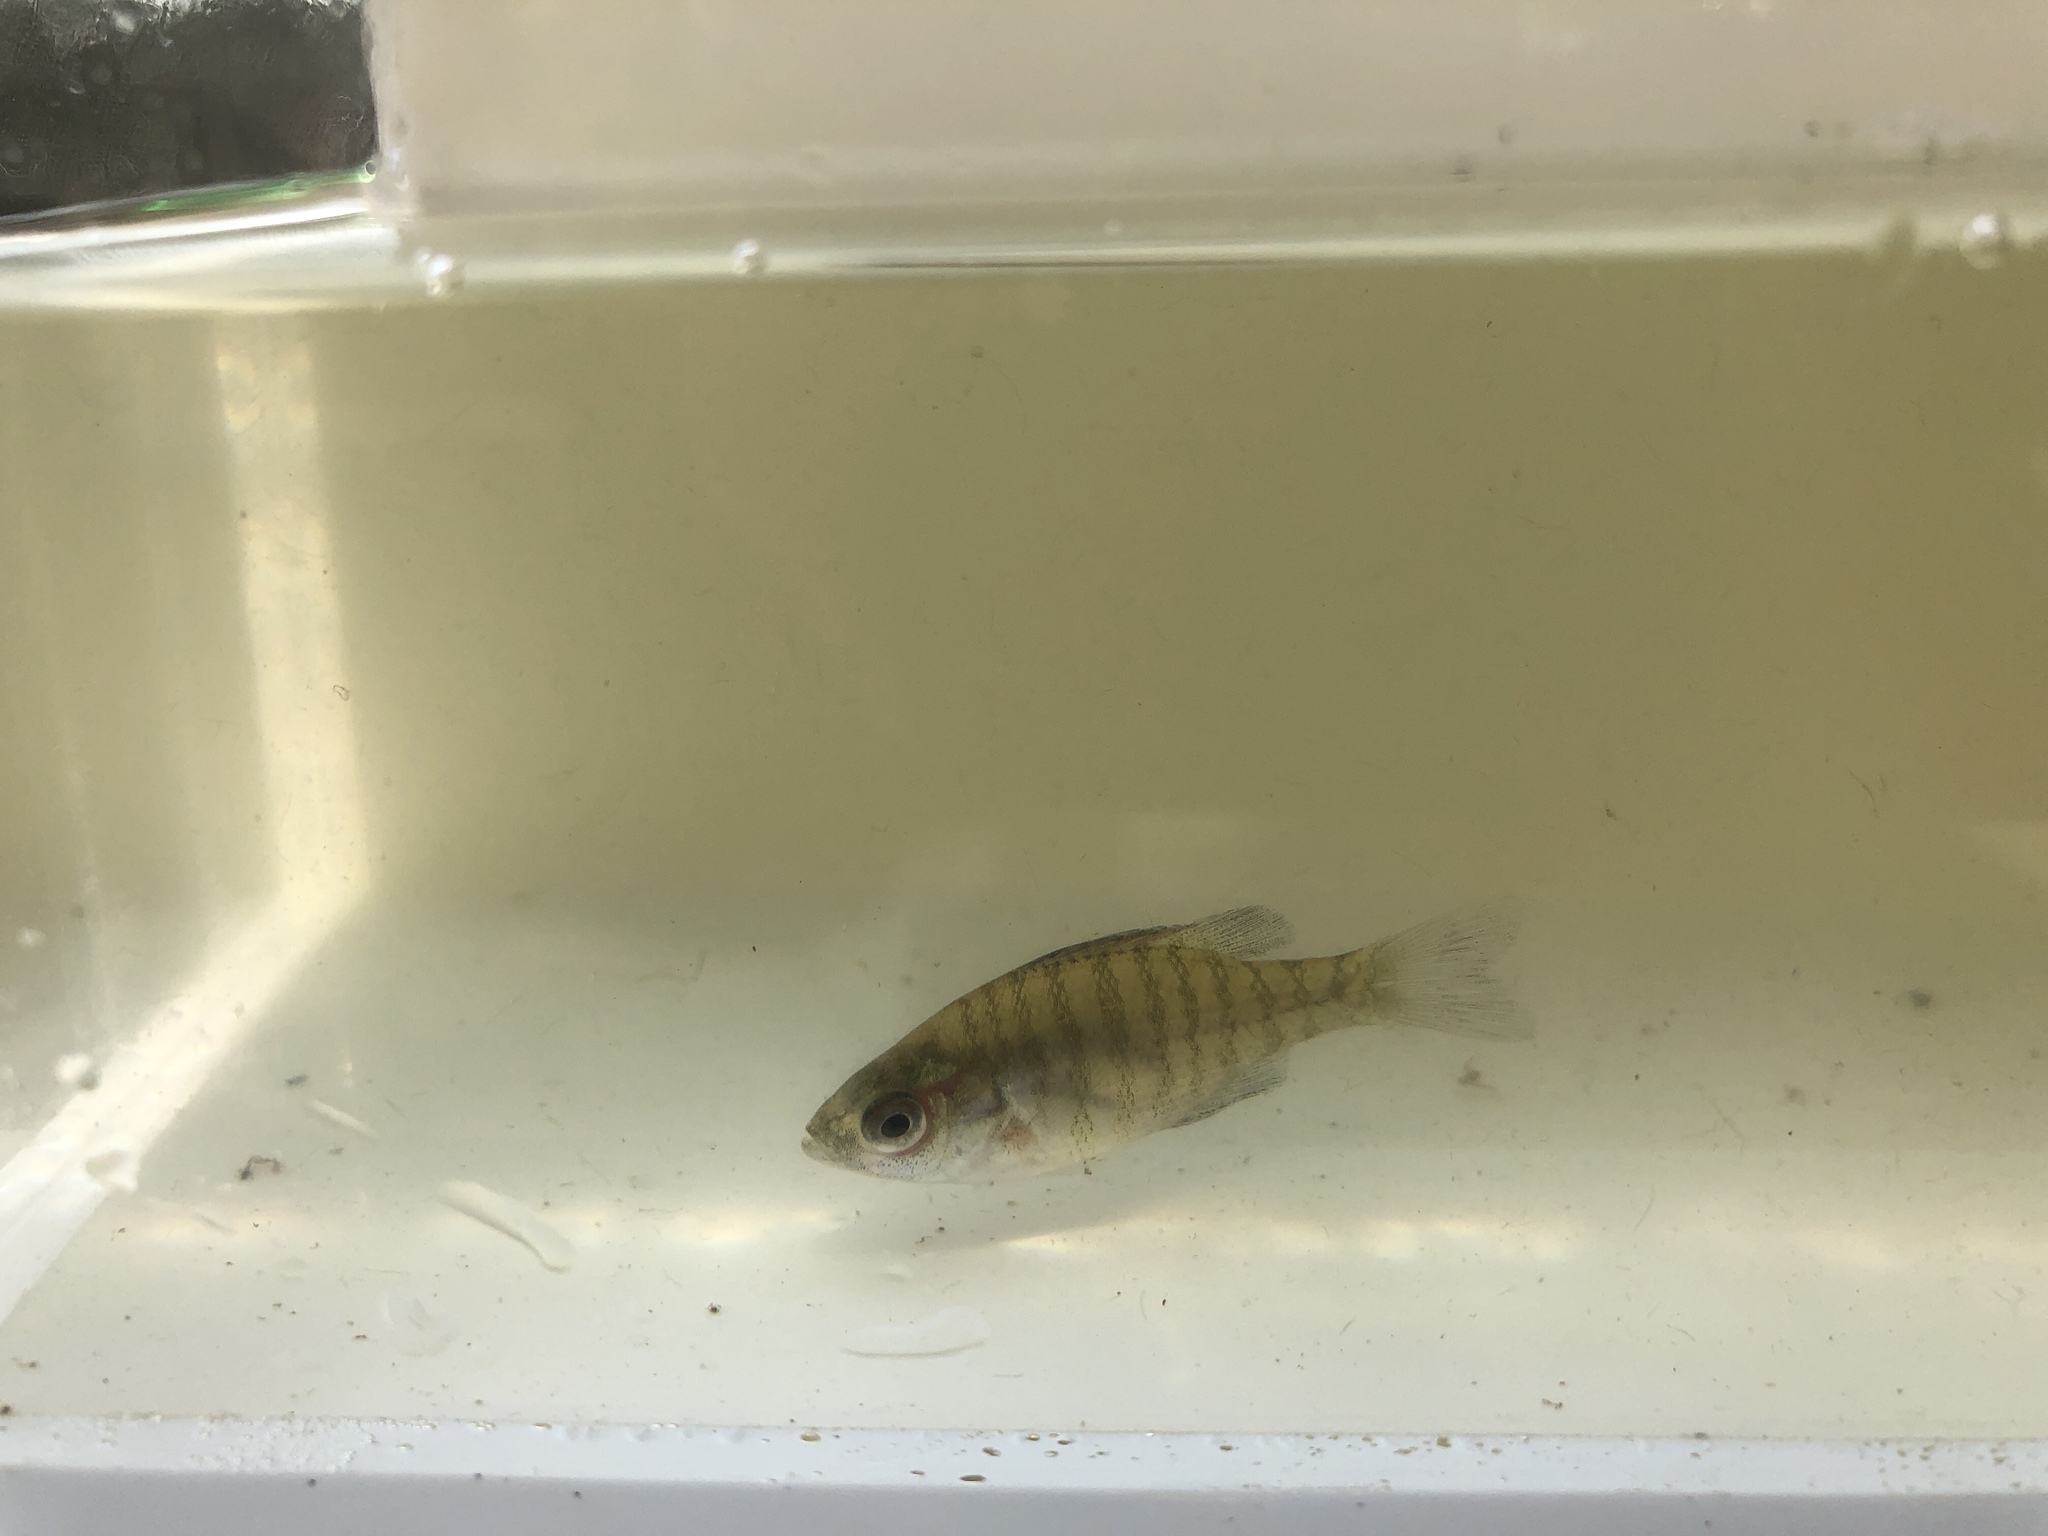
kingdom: Animalia
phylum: Chordata
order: Perciformes
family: Centrarchidae
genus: Lepomis
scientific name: Lepomis macrochirus
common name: Bluegill
